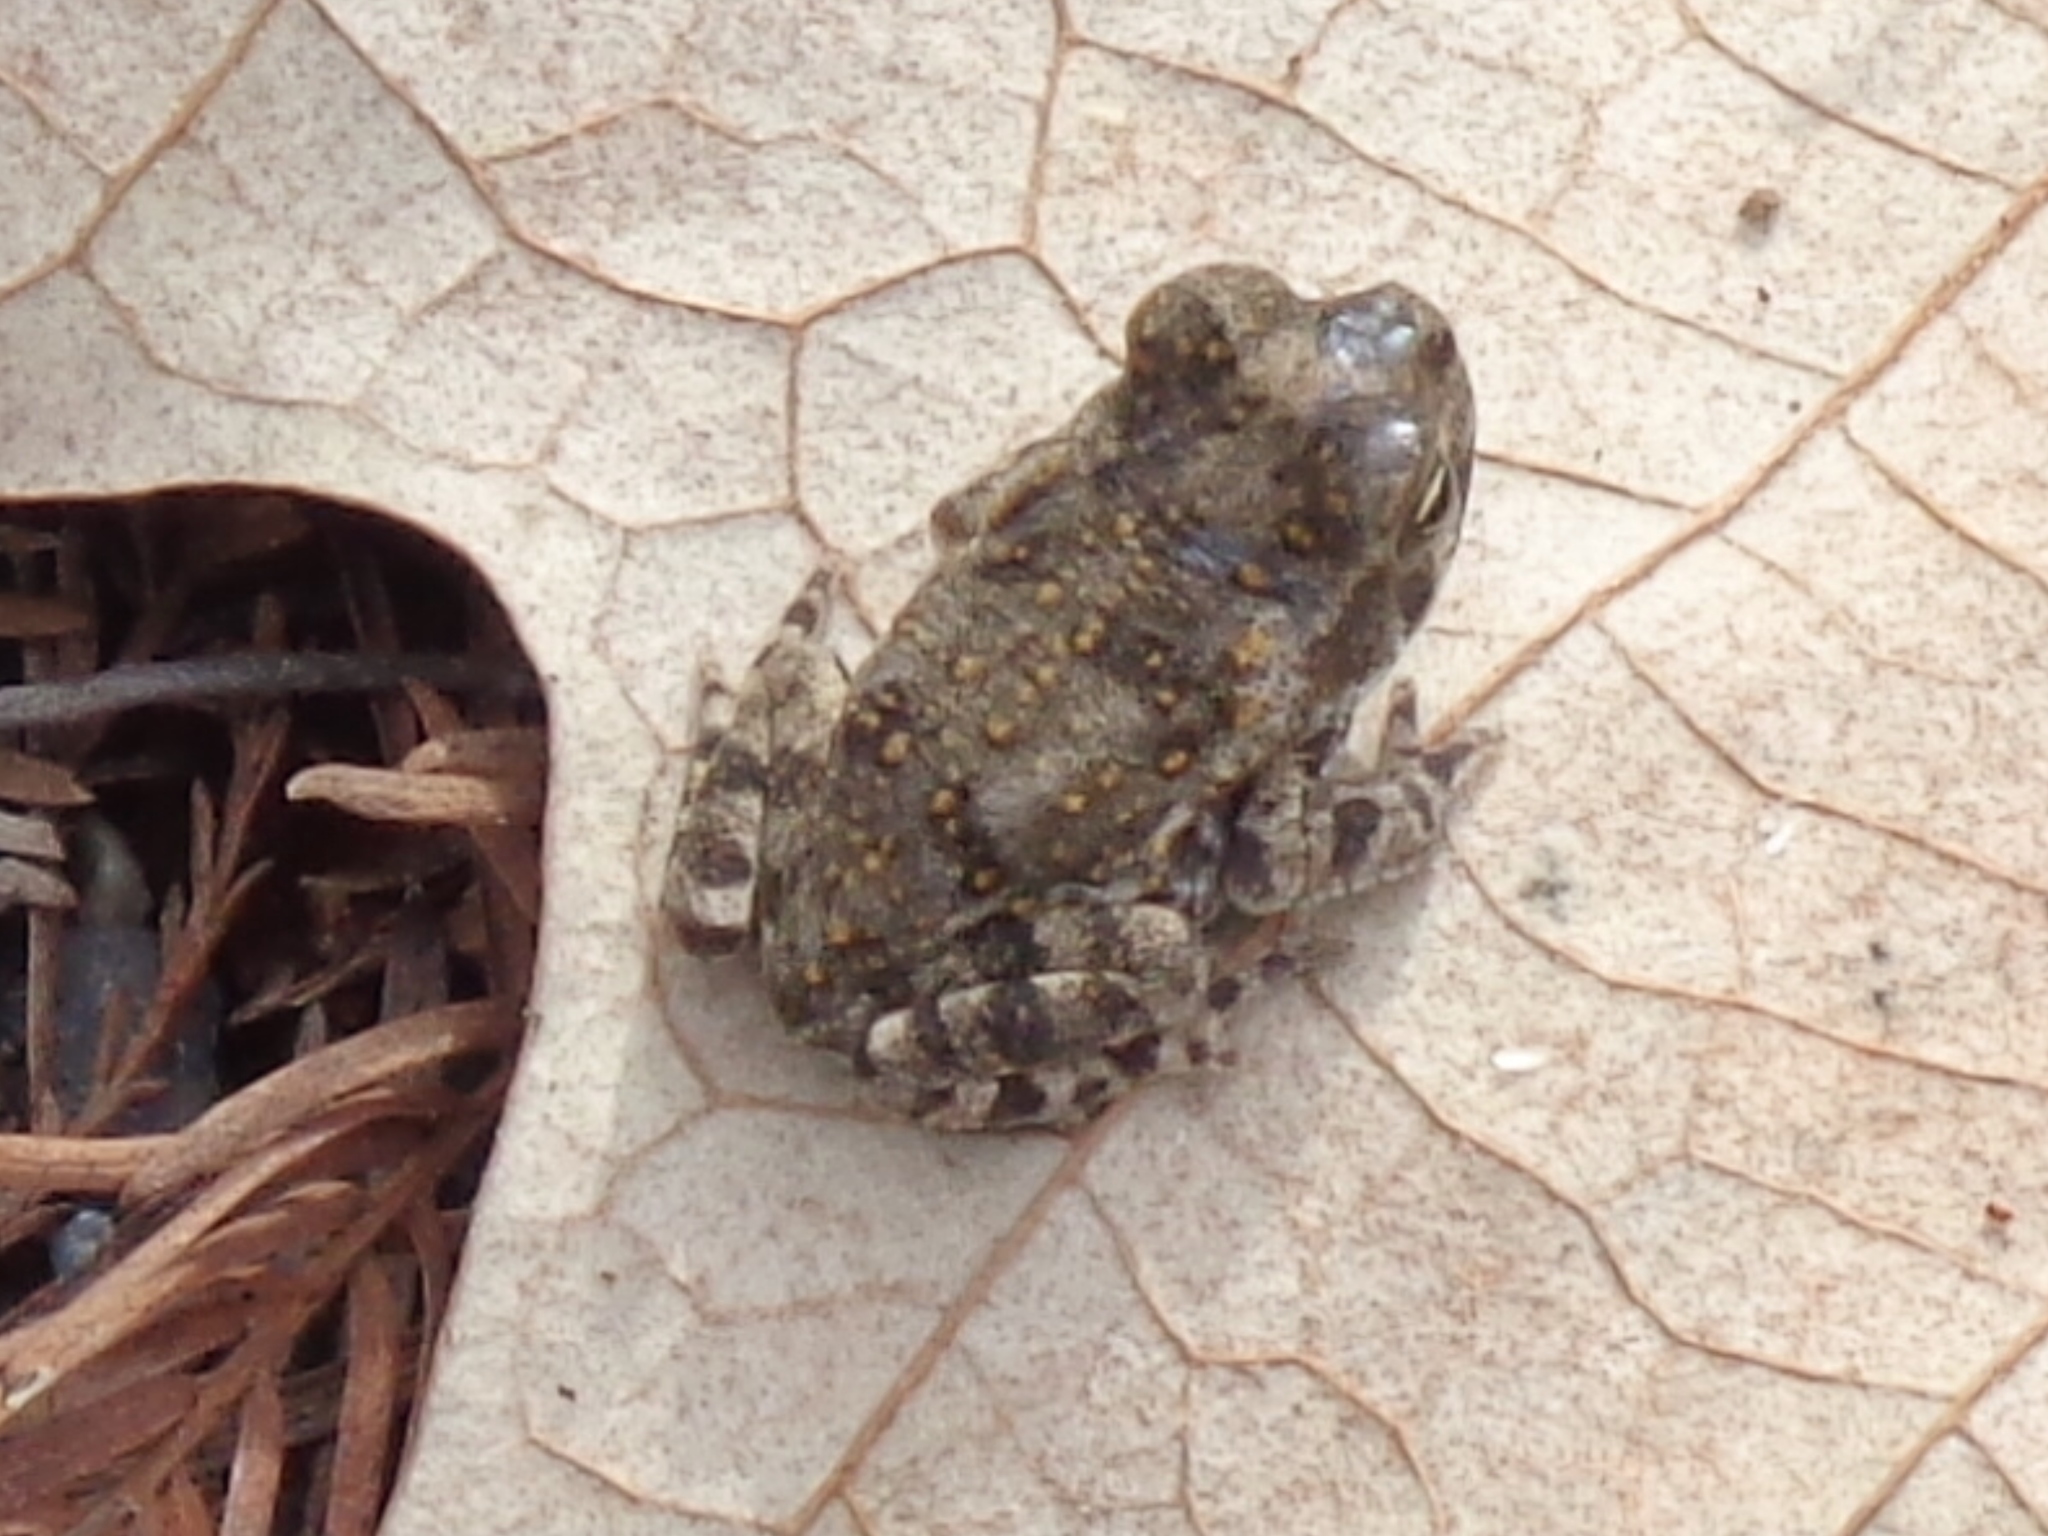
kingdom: Animalia
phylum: Chordata
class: Amphibia
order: Anura
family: Bufonidae
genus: Incilius
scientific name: Incilius nebulifer
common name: Gulf coast toad
